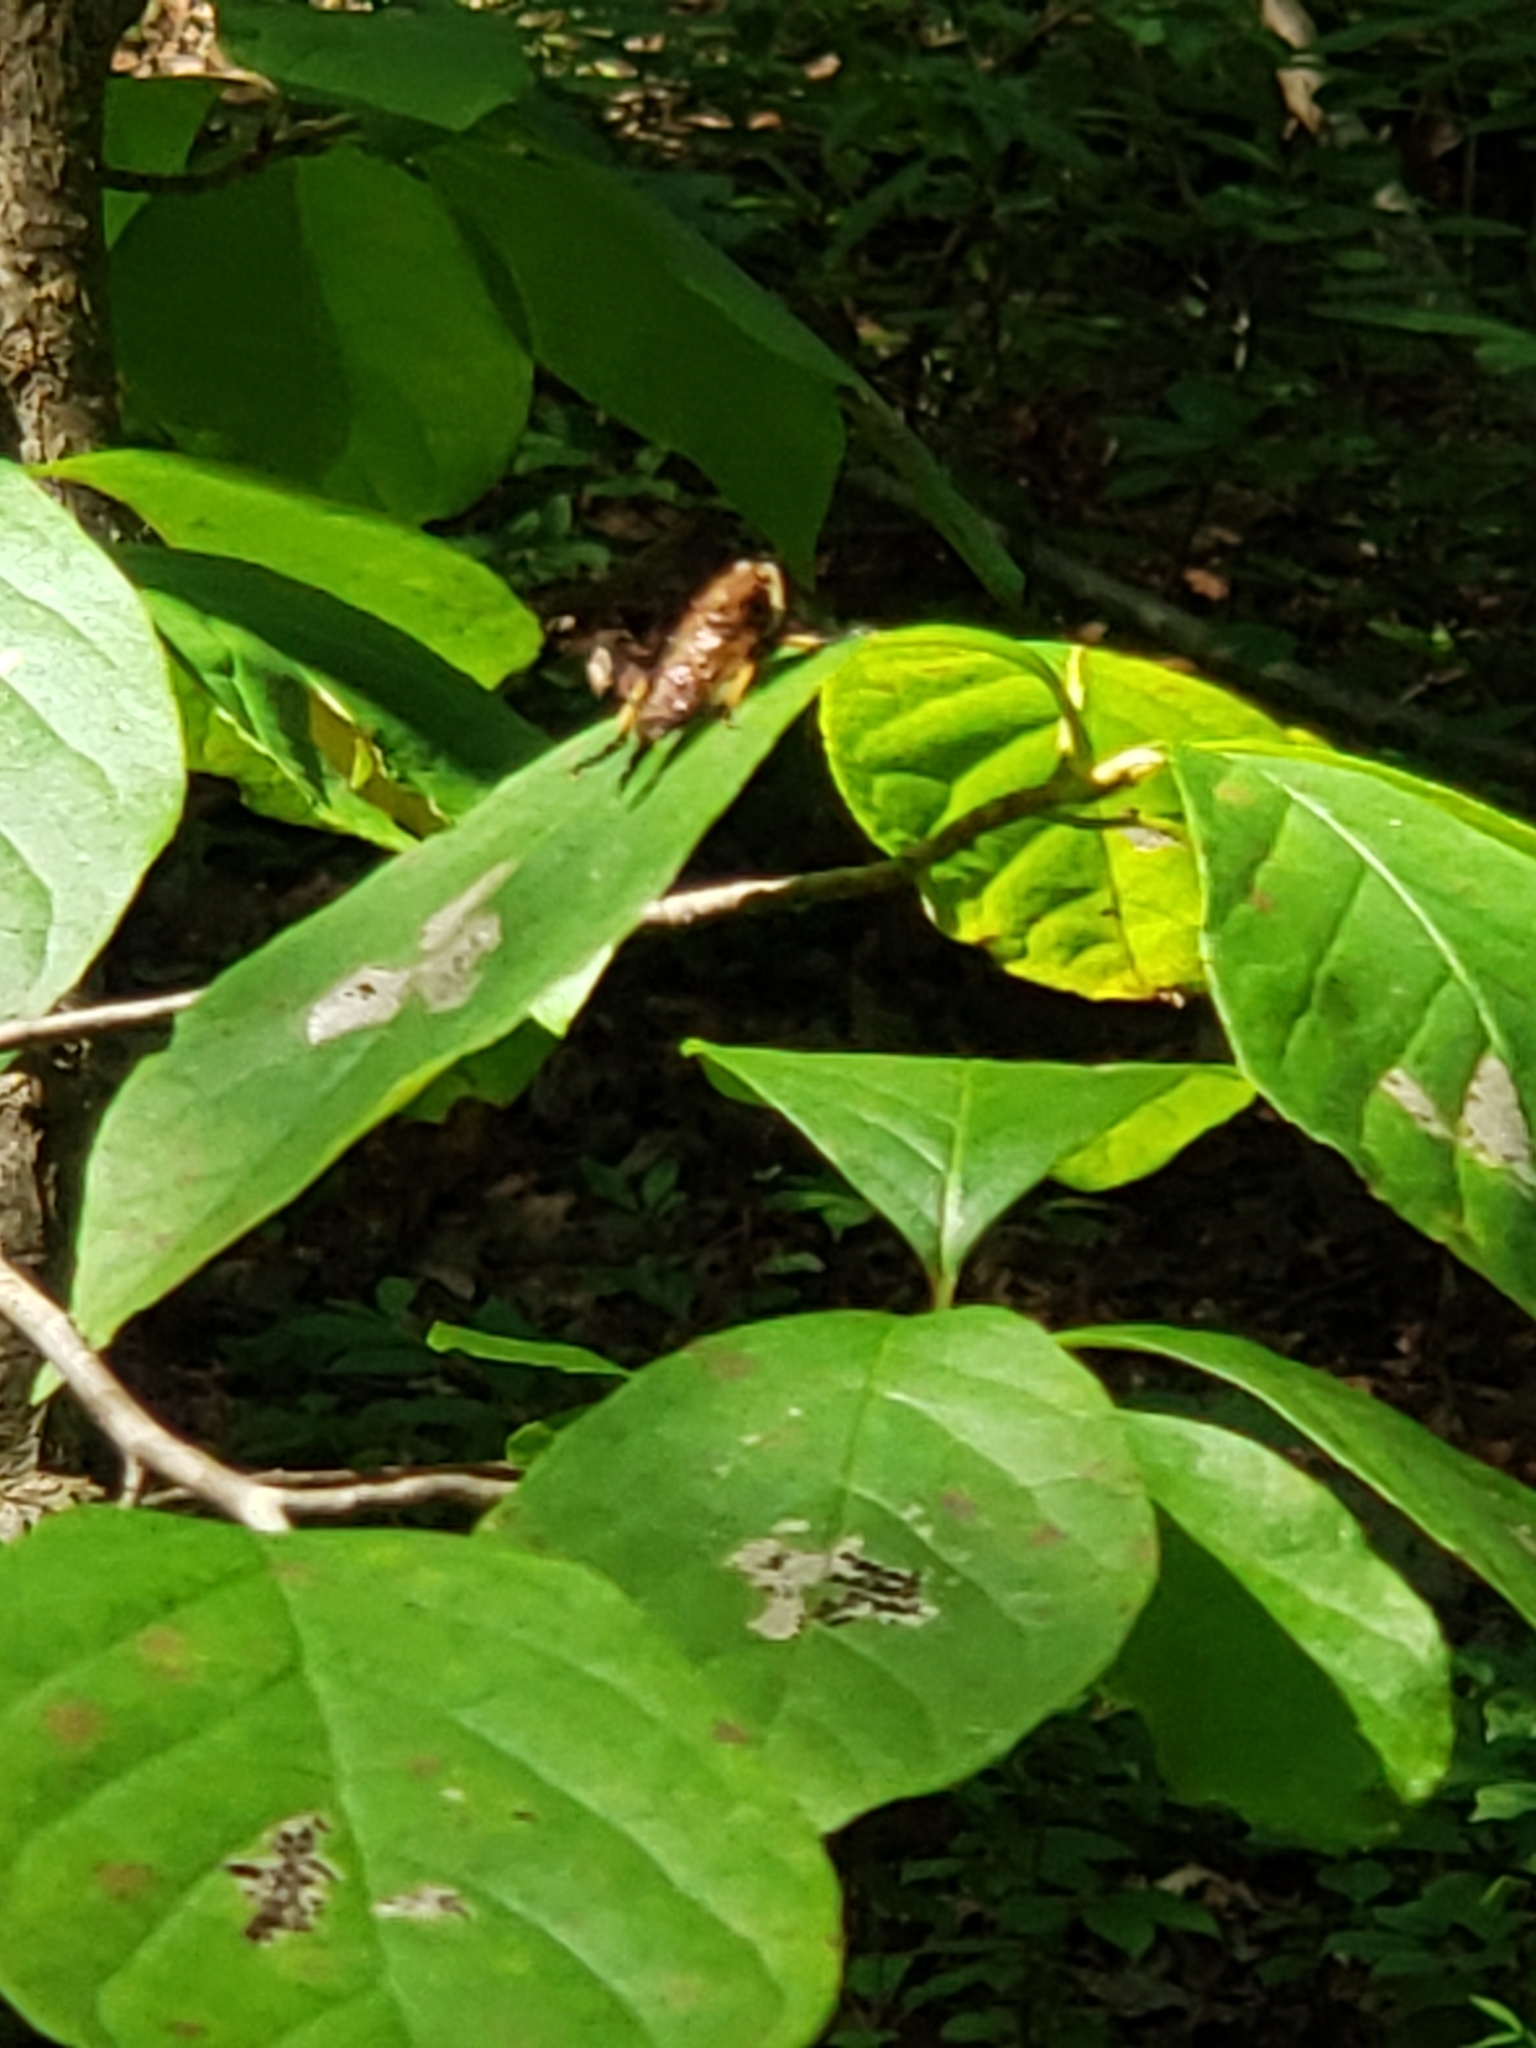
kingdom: Animalia
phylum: Arthropoda
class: Insecta
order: Diptera
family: Asilidae
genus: Promachus
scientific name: Promachus rufipes
